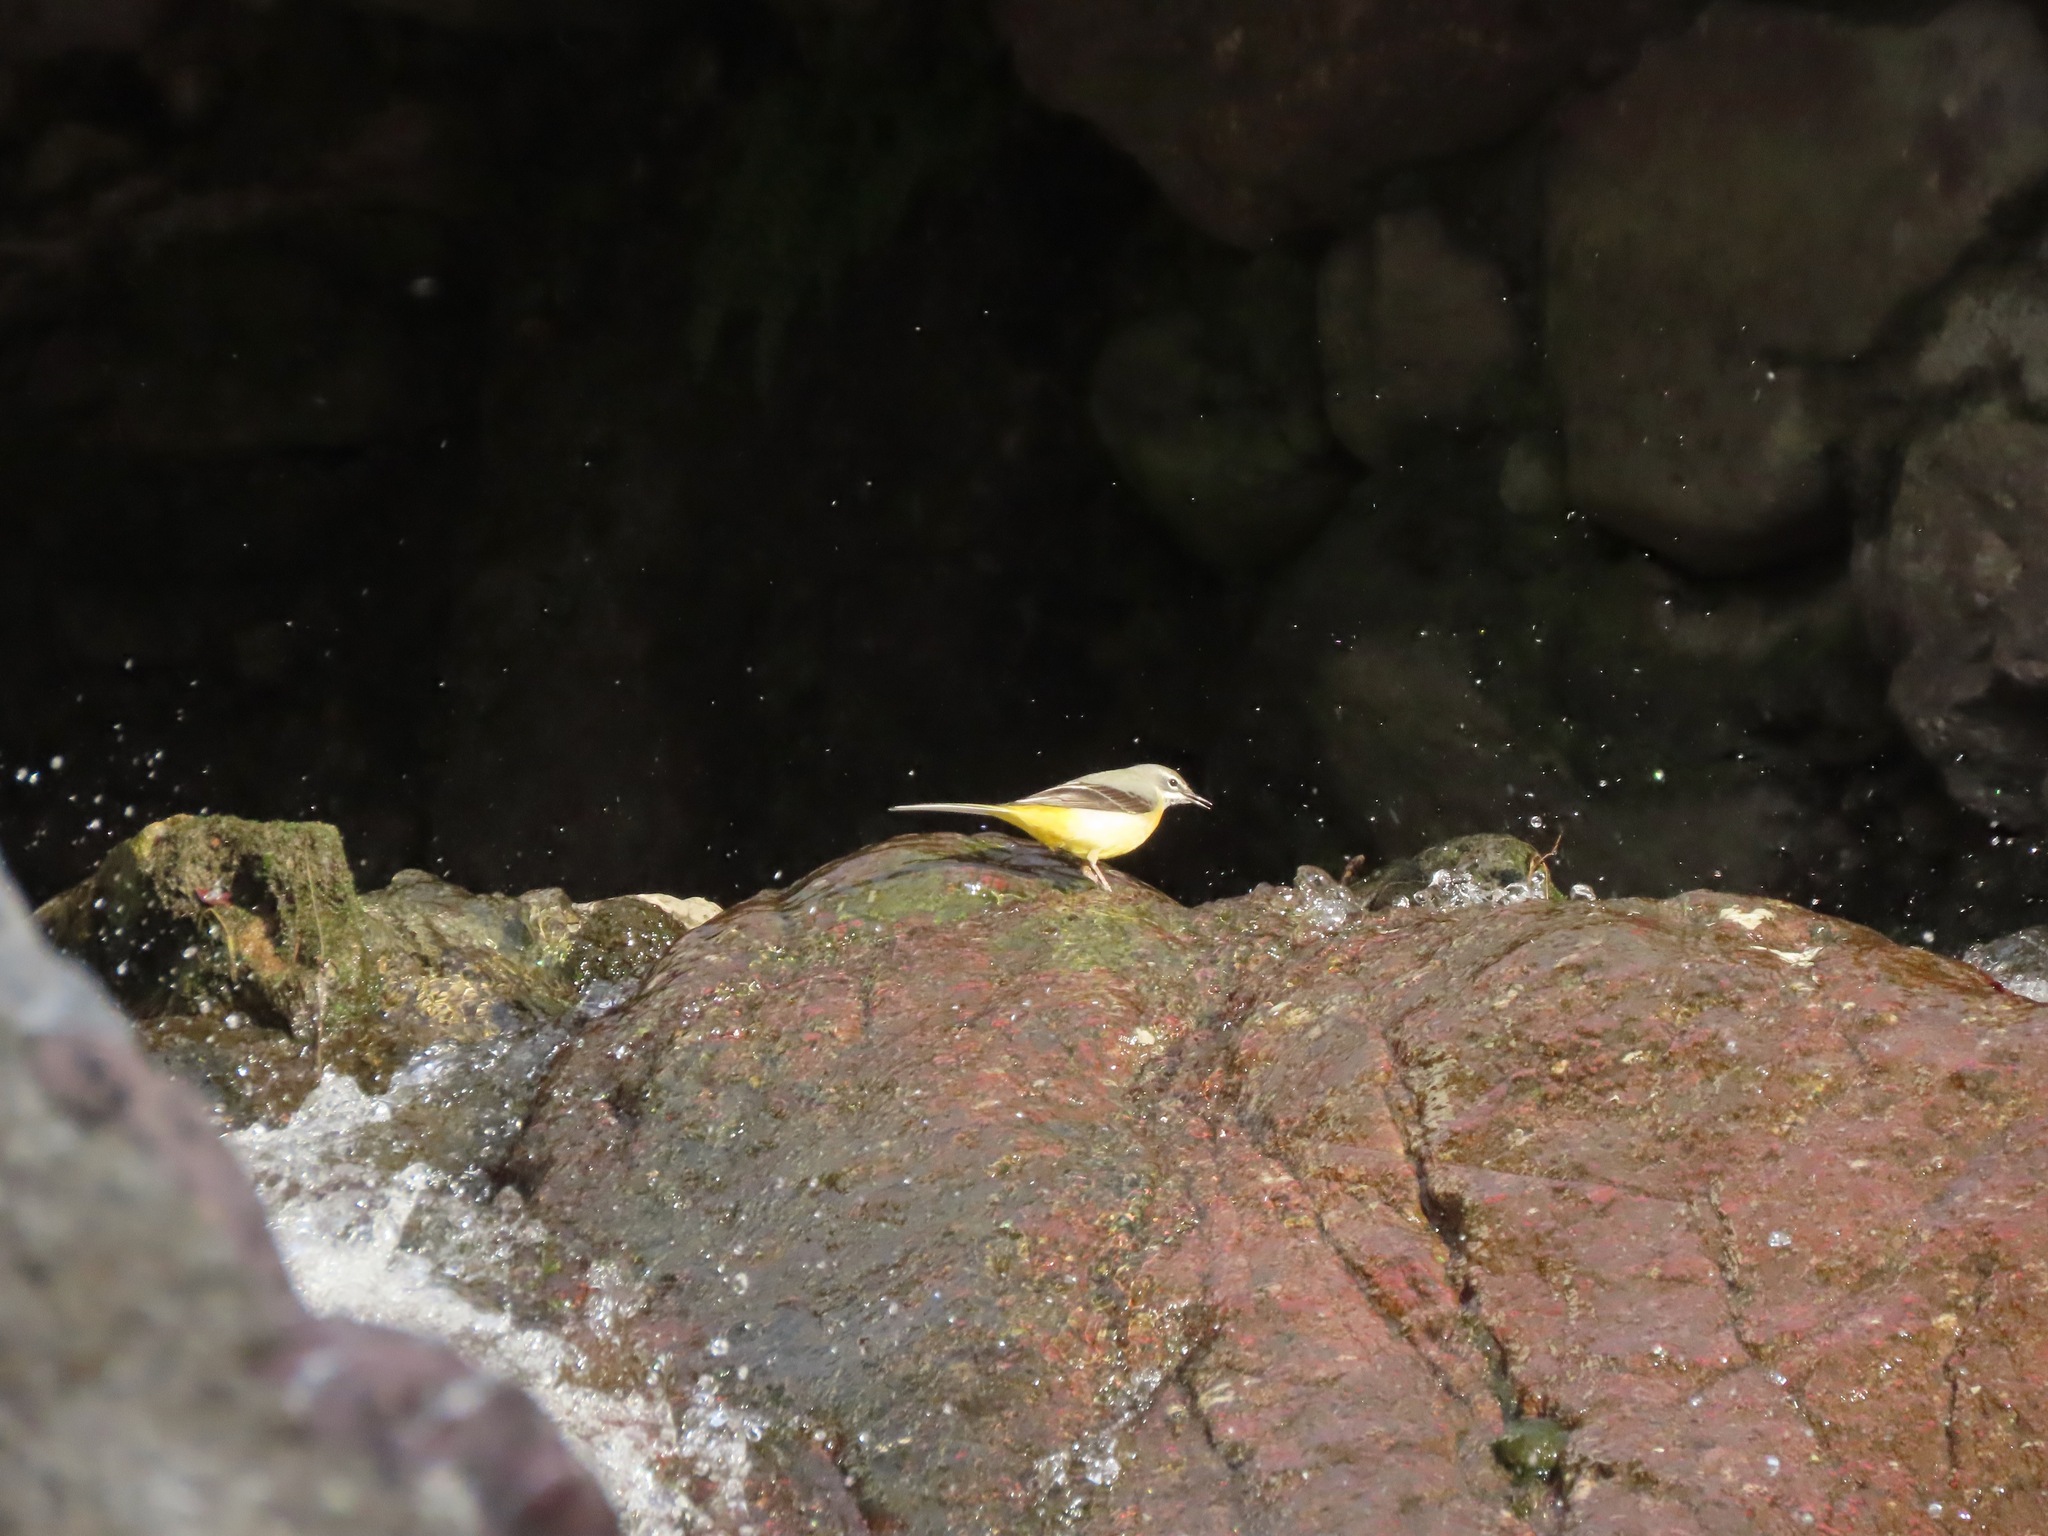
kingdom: Animalia
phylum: Chordata
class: Aves
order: Passeriformes
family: Motacillidae
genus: Motacilla
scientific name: Motacilla cinerea
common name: Grey wagtail
